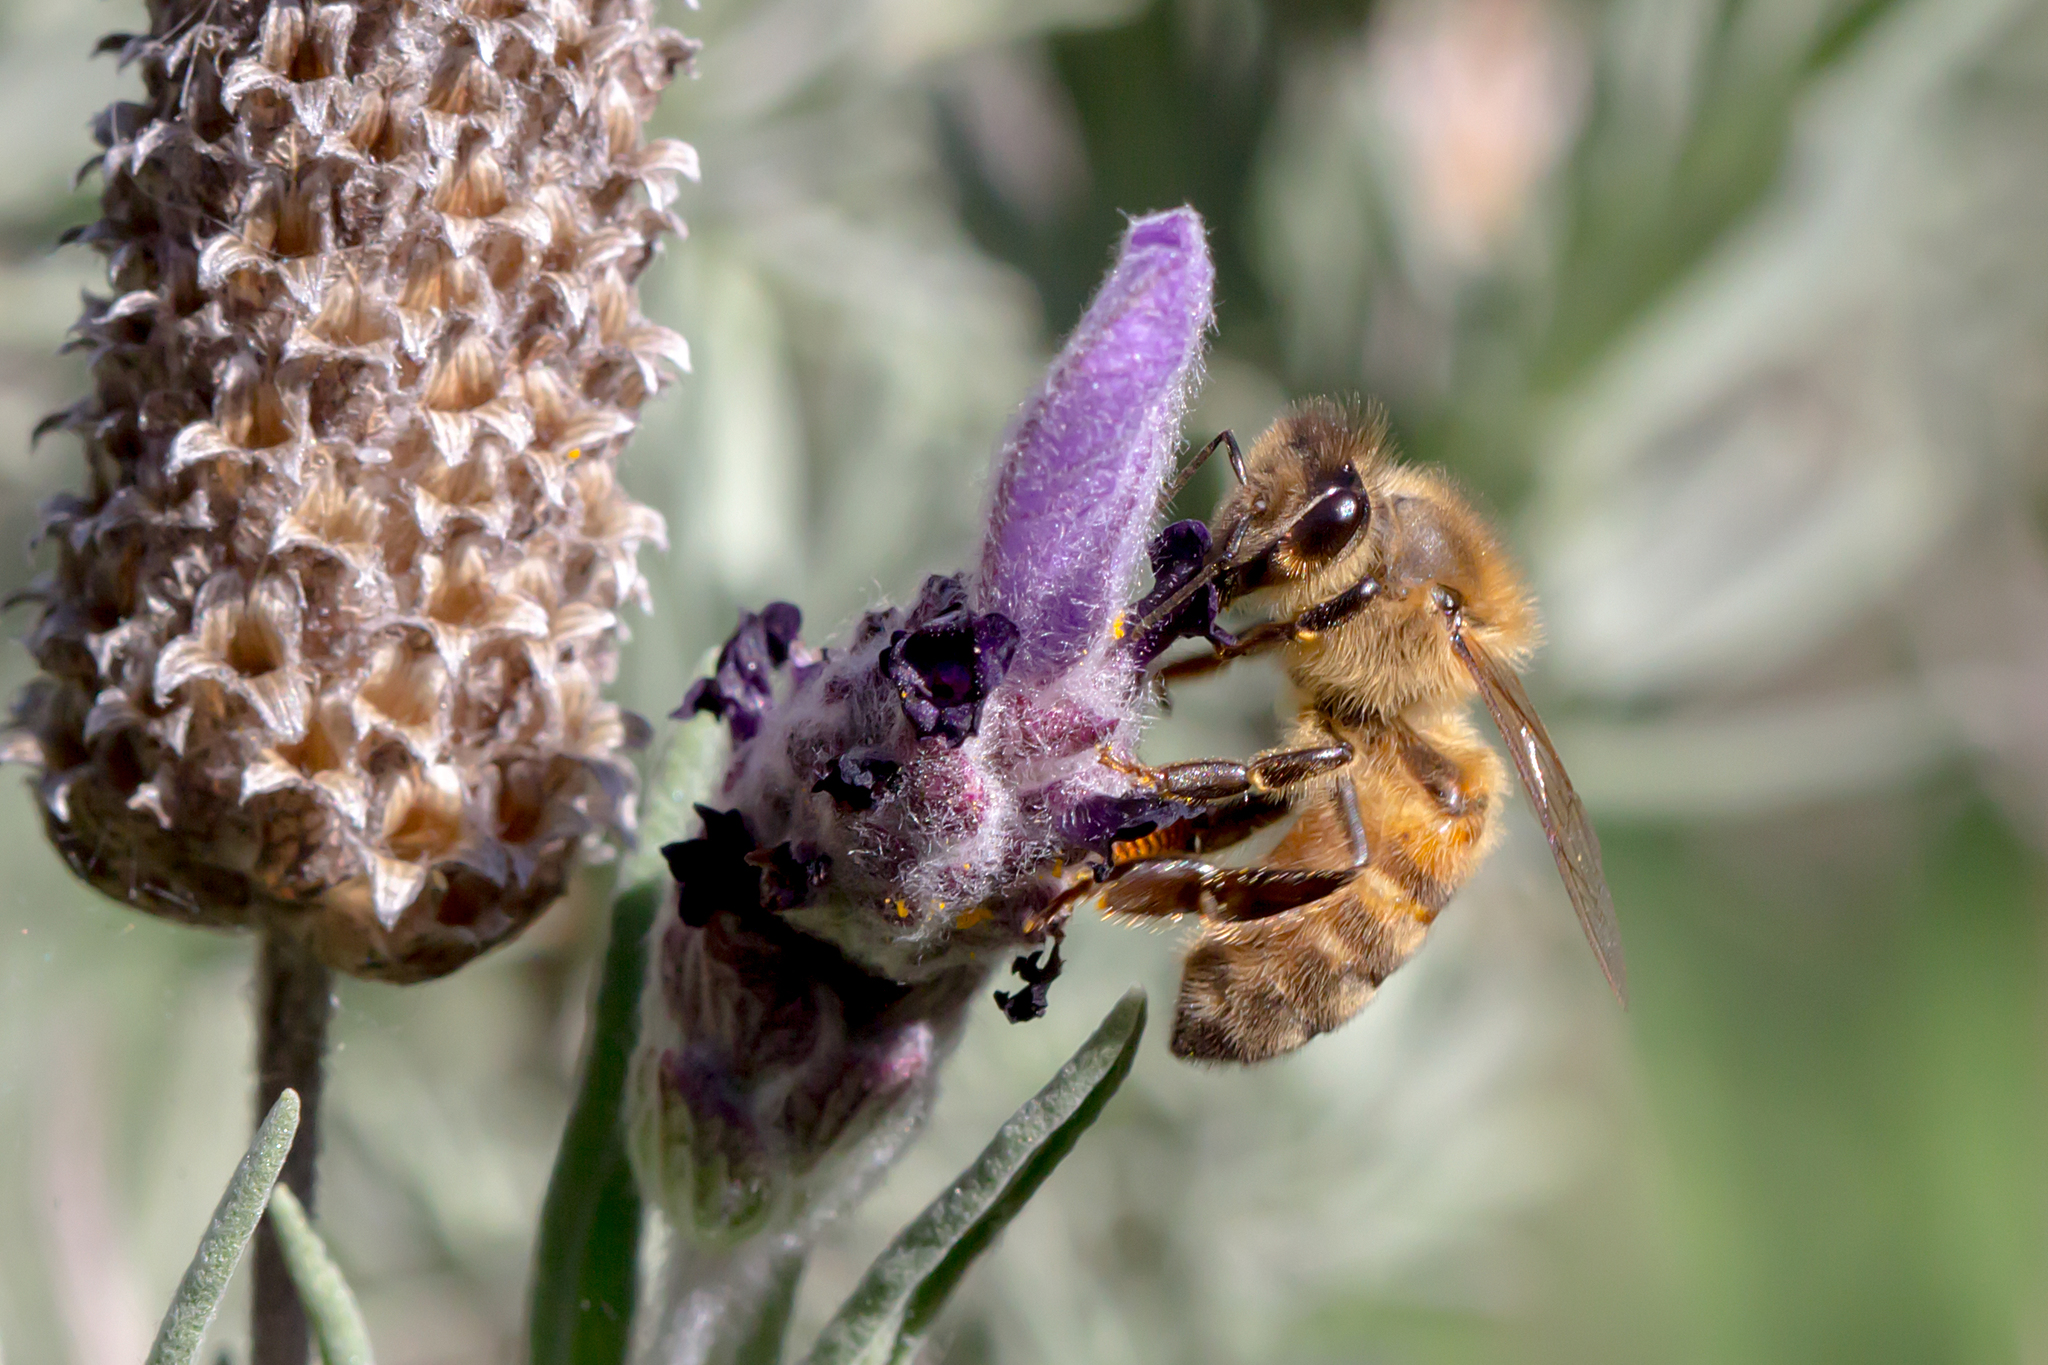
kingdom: Animalia
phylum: Arthropoda
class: Insecta
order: Hymenoptera
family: Apidae
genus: Apis
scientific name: Apis mellifera
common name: Honey bee
